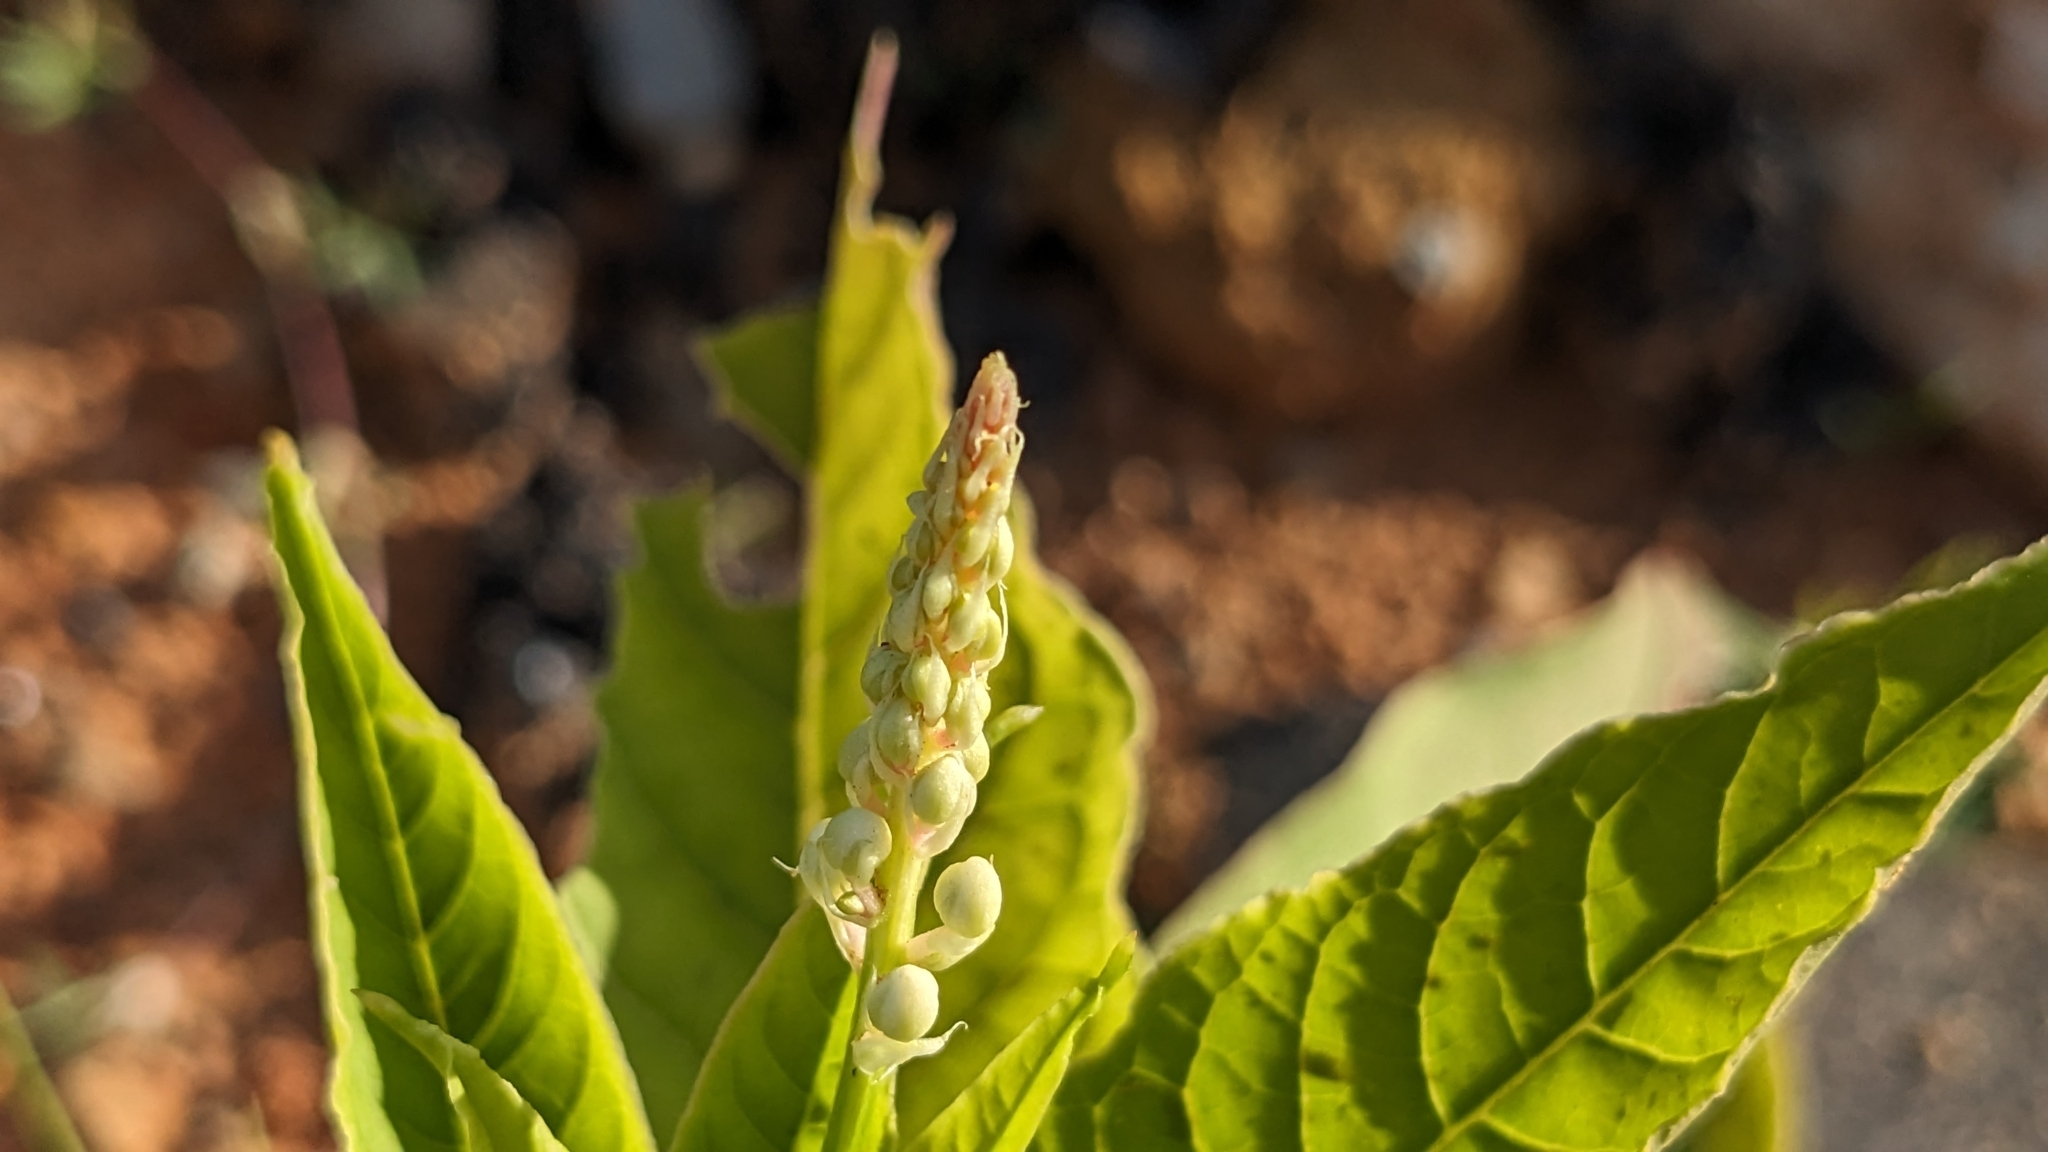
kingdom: Plantae
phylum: Tracheophyta
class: Magnoliopsida
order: Caryophyllales
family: Phytolaccaceae
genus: Phytolacca
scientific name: Phytolacca americana
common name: American pokeweed
